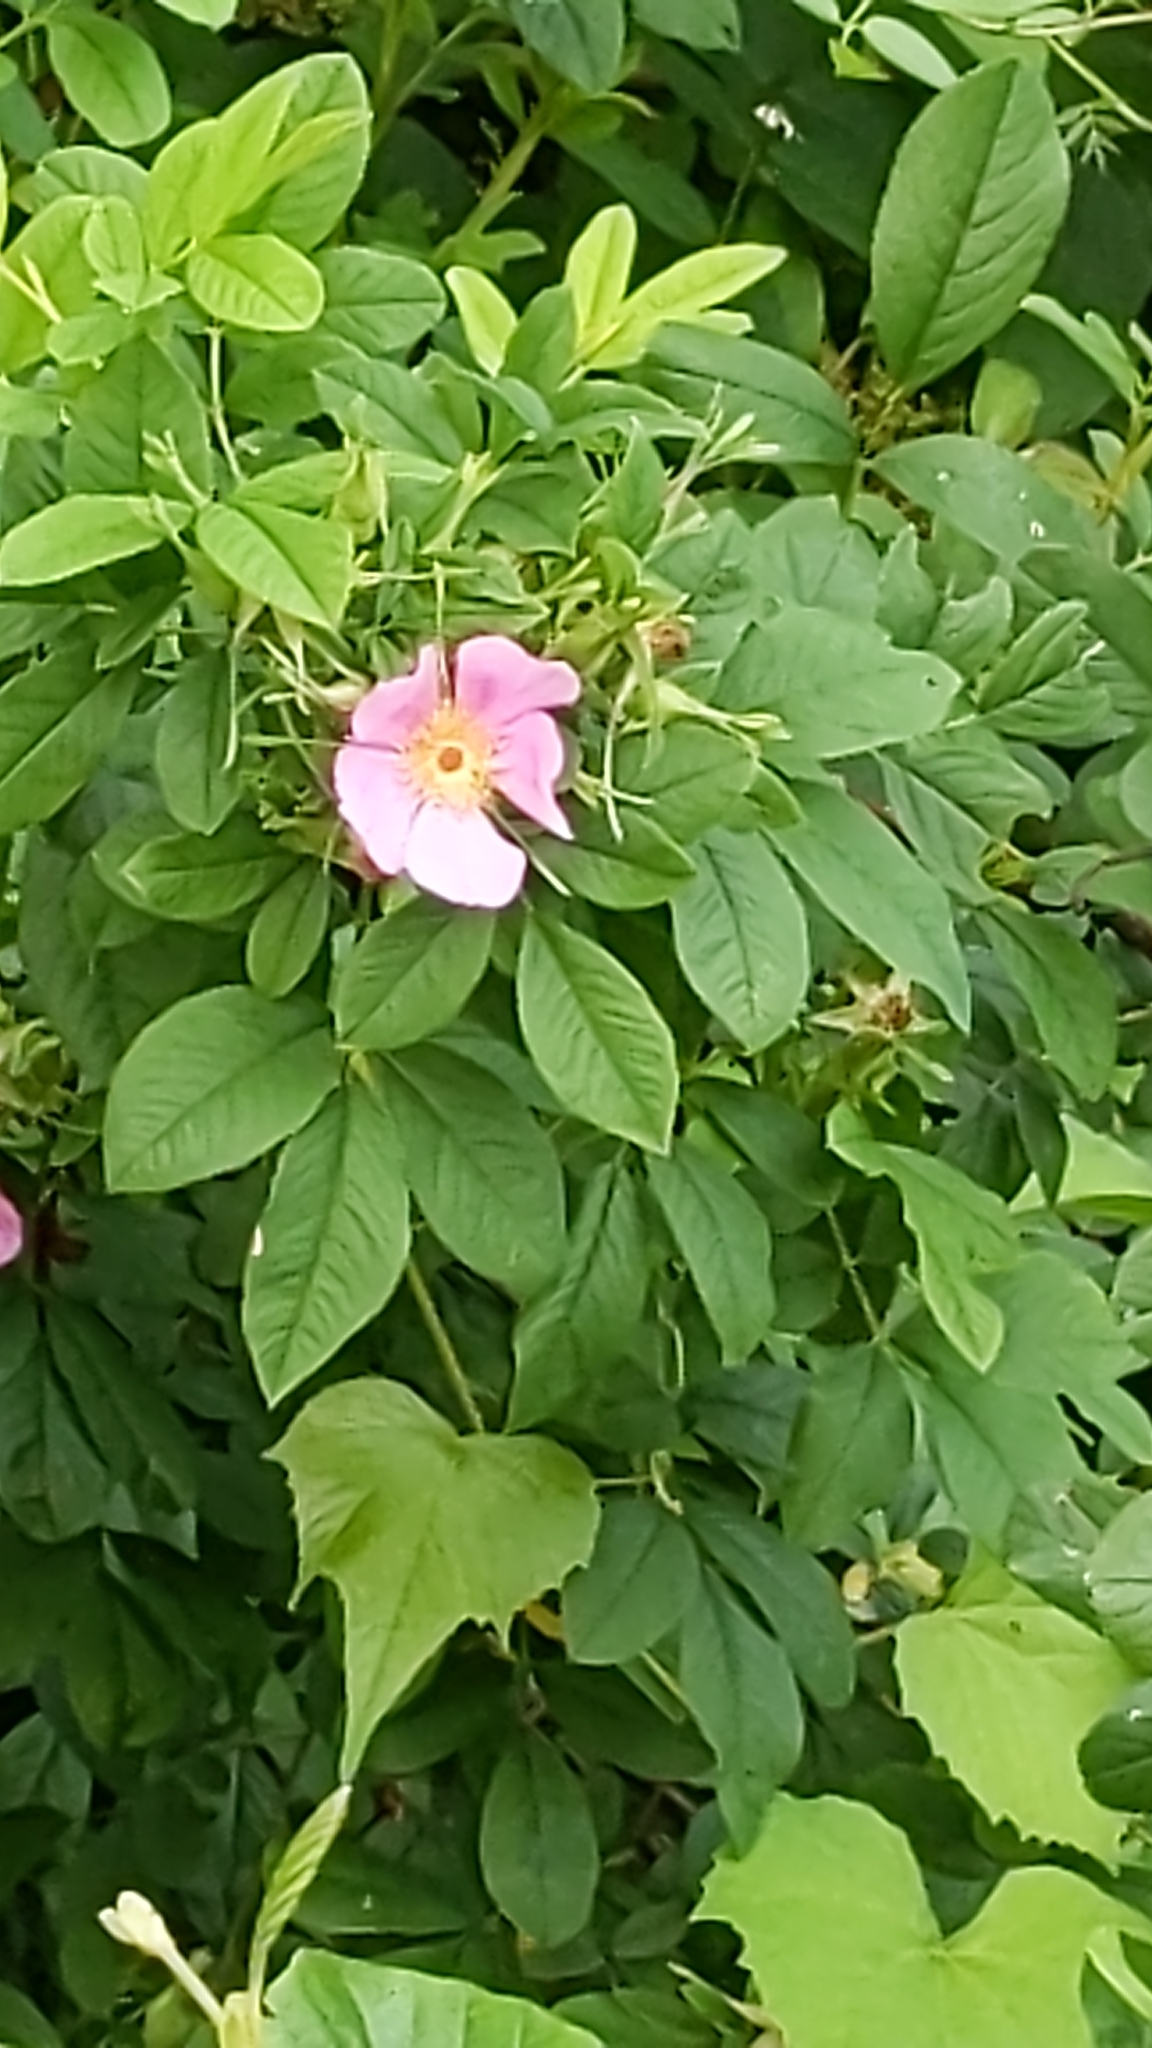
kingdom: Plantae
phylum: Tracheophyta
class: Magnoliopsida
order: Rosales
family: Rosaceae
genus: Rosa
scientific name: Rosa carolina
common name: Pasture rose
